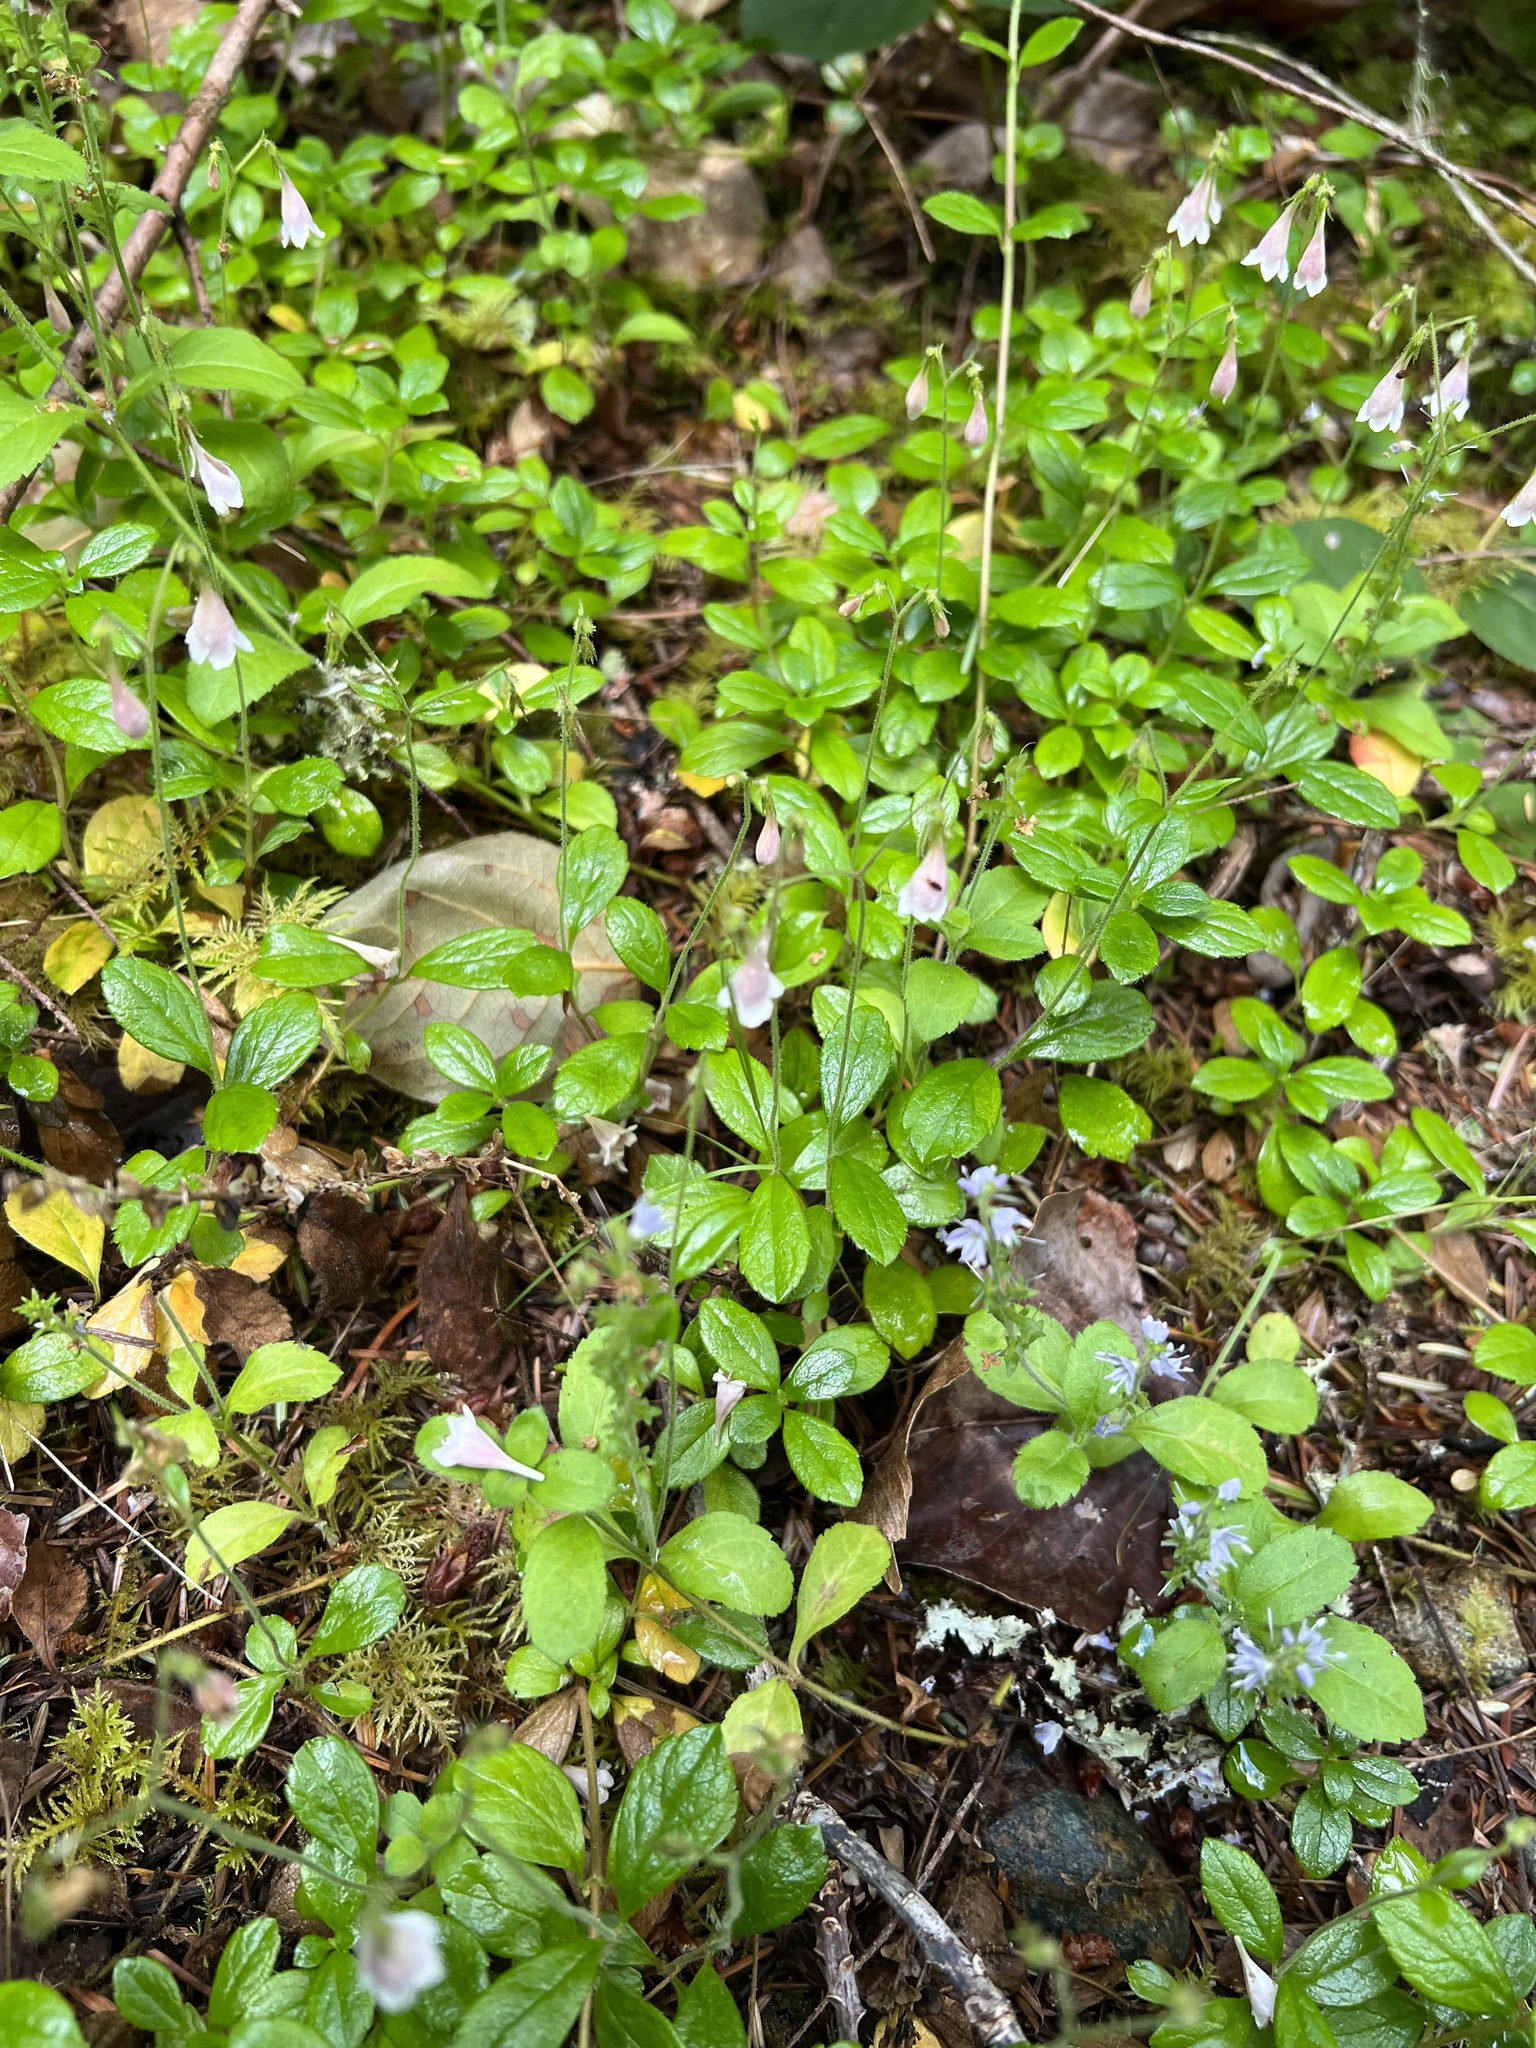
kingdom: Plantae
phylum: Tracheophyta
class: Magnoliopsida
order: Dipsacales
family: Caprifoliaceae
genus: Linnaea
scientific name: Linnaea borealis
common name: Twinflower
